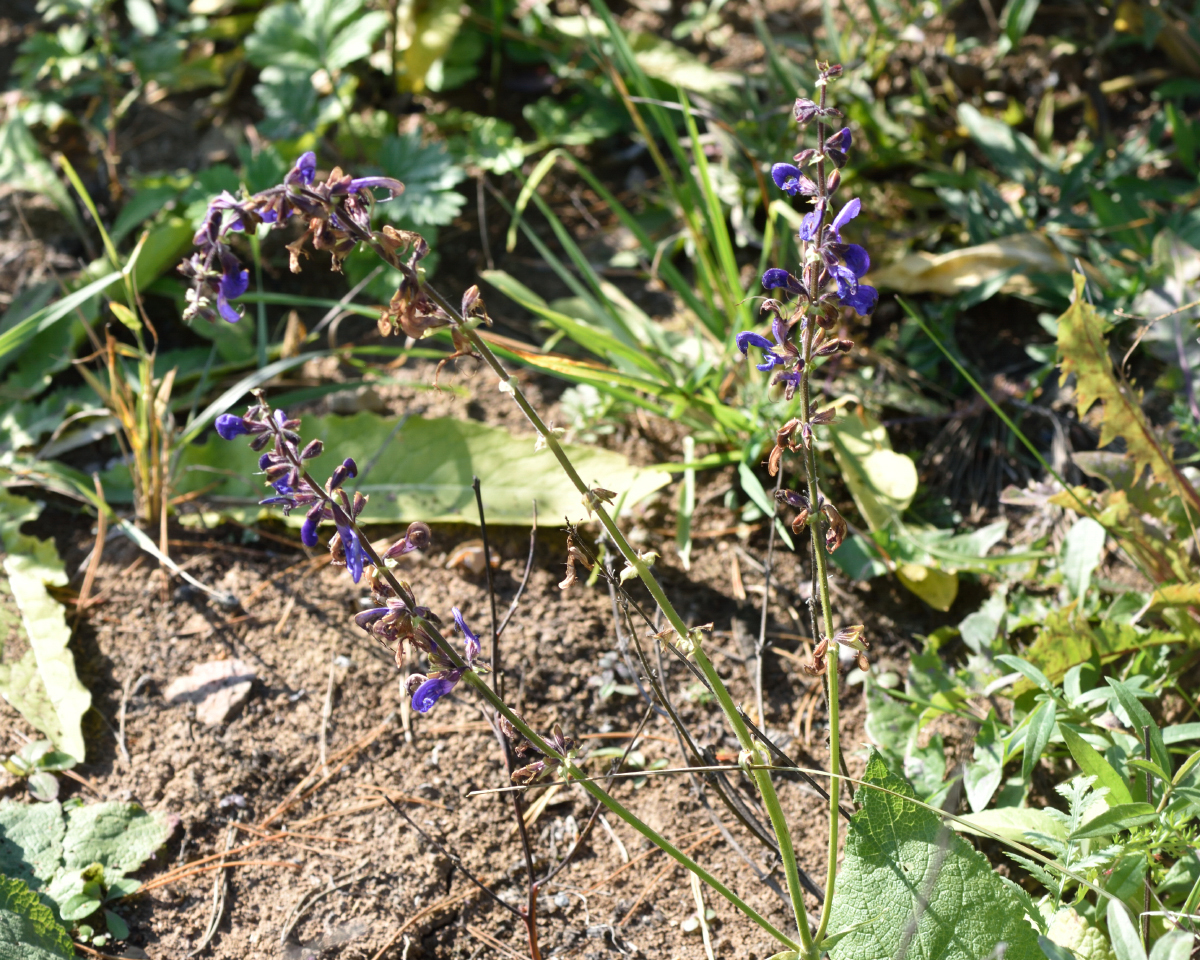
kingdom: Plantae
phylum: Tracheophyta
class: Magnoliopsida
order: Lamiales
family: Lamiaceae
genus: Salvia
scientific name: Salvia pratensis
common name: Meadow sage
